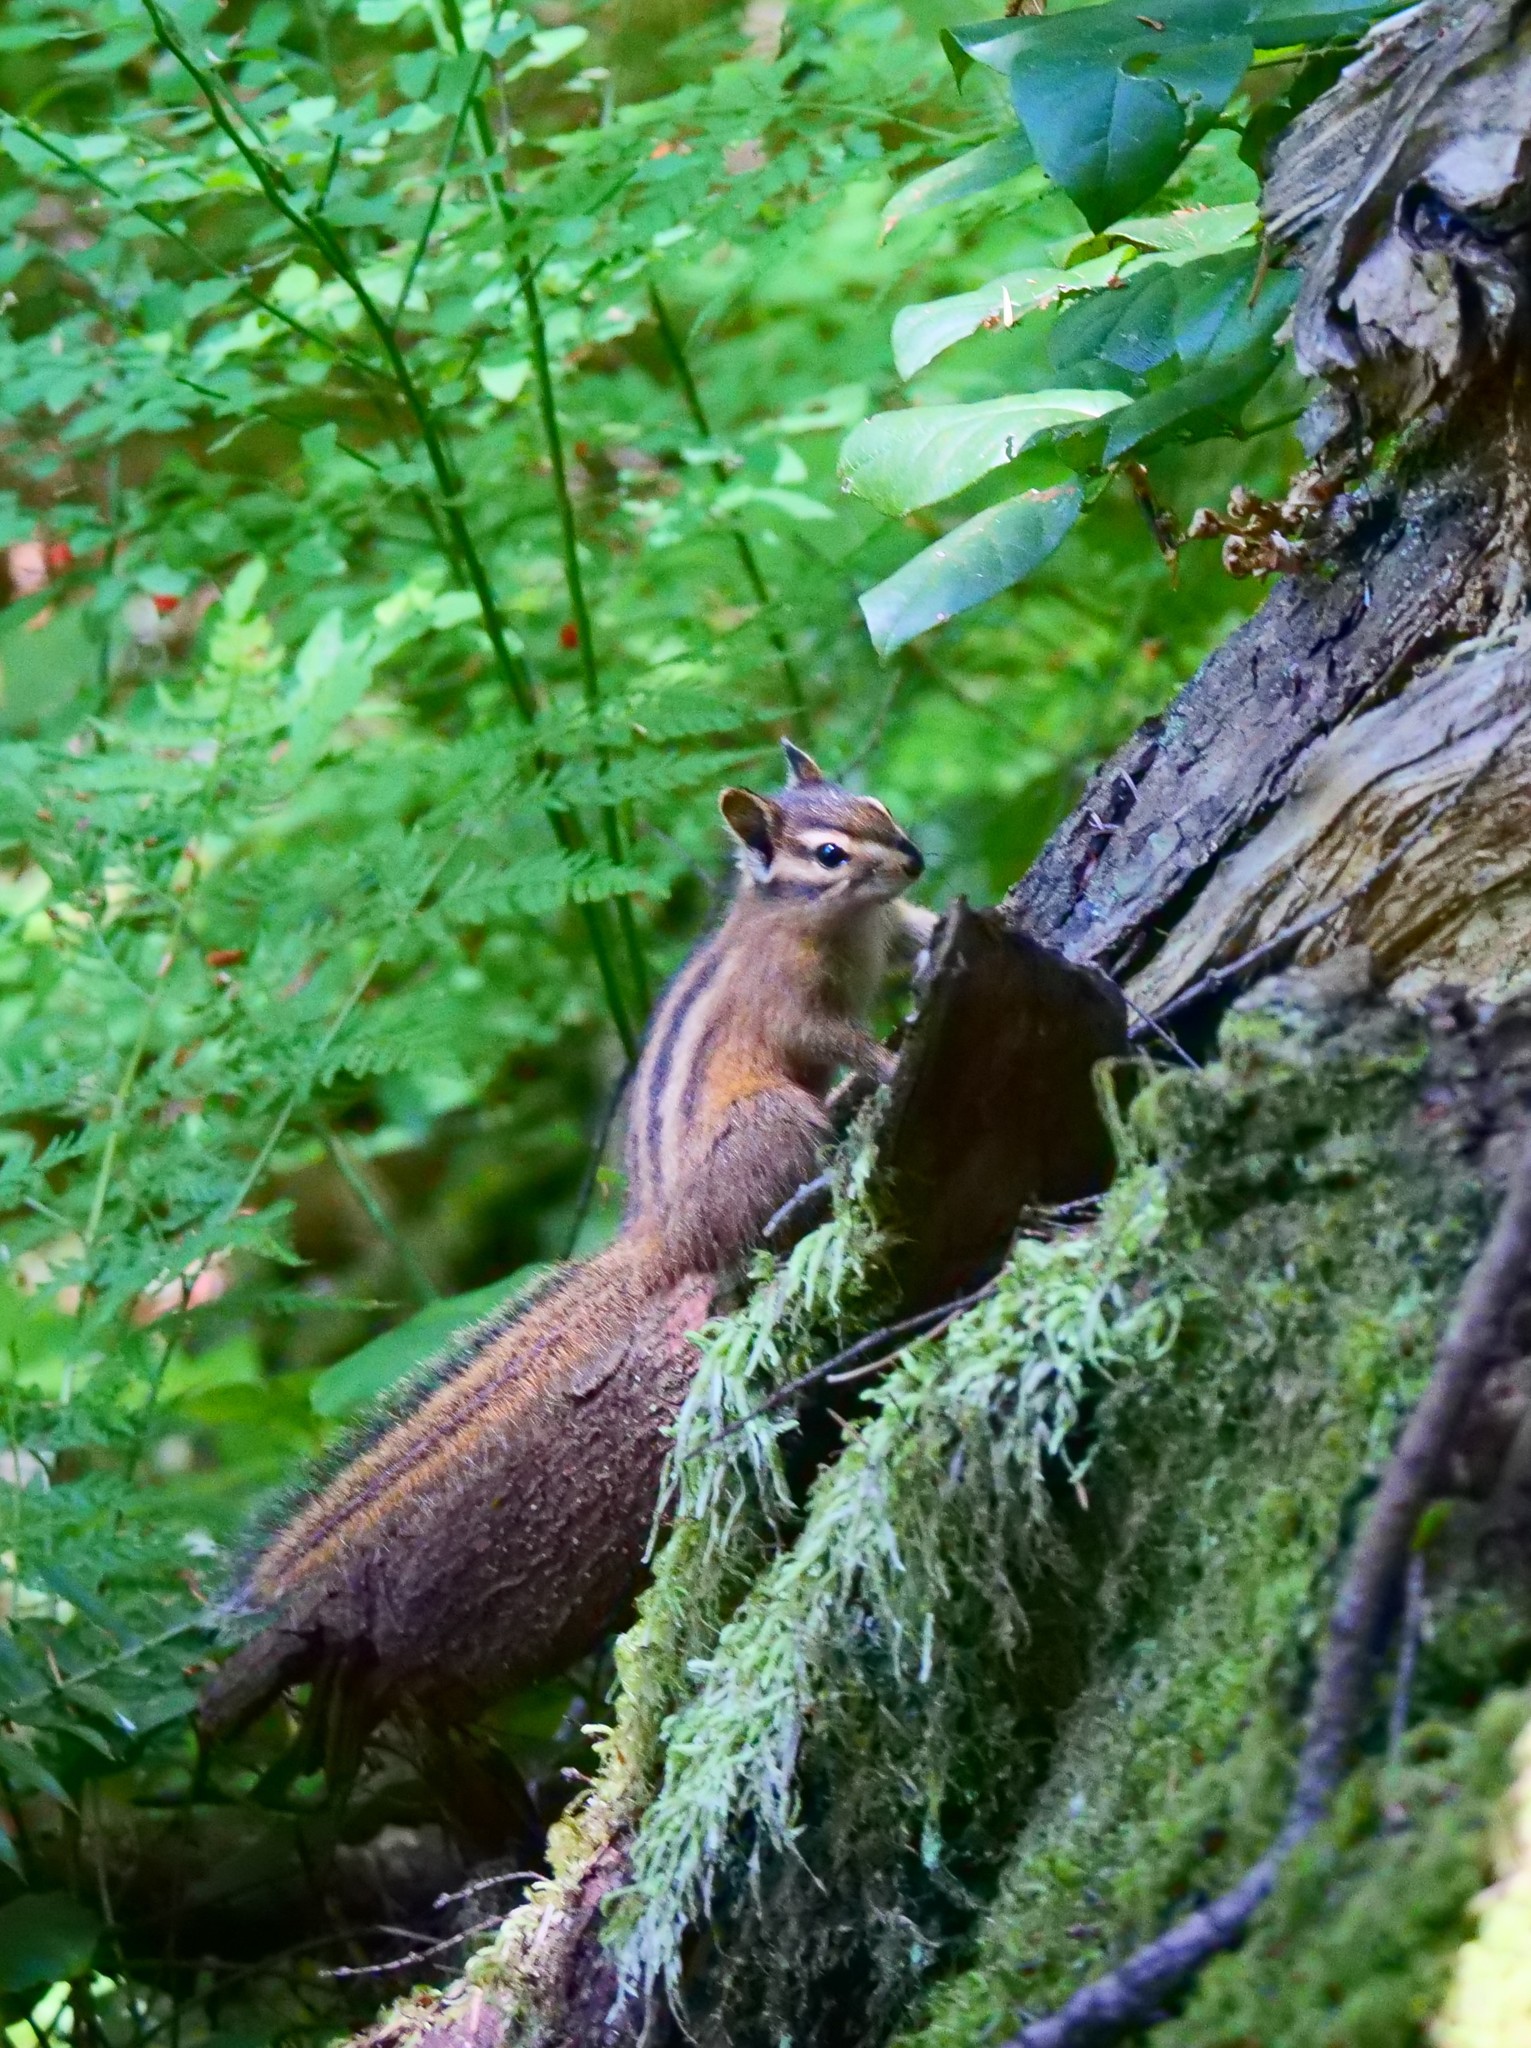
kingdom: Animalia
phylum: Chordata
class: Mammalia
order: Rodentia
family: Sciuridae
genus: Tamias
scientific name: Tamias townsendii
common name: Townsend's chipmunk
